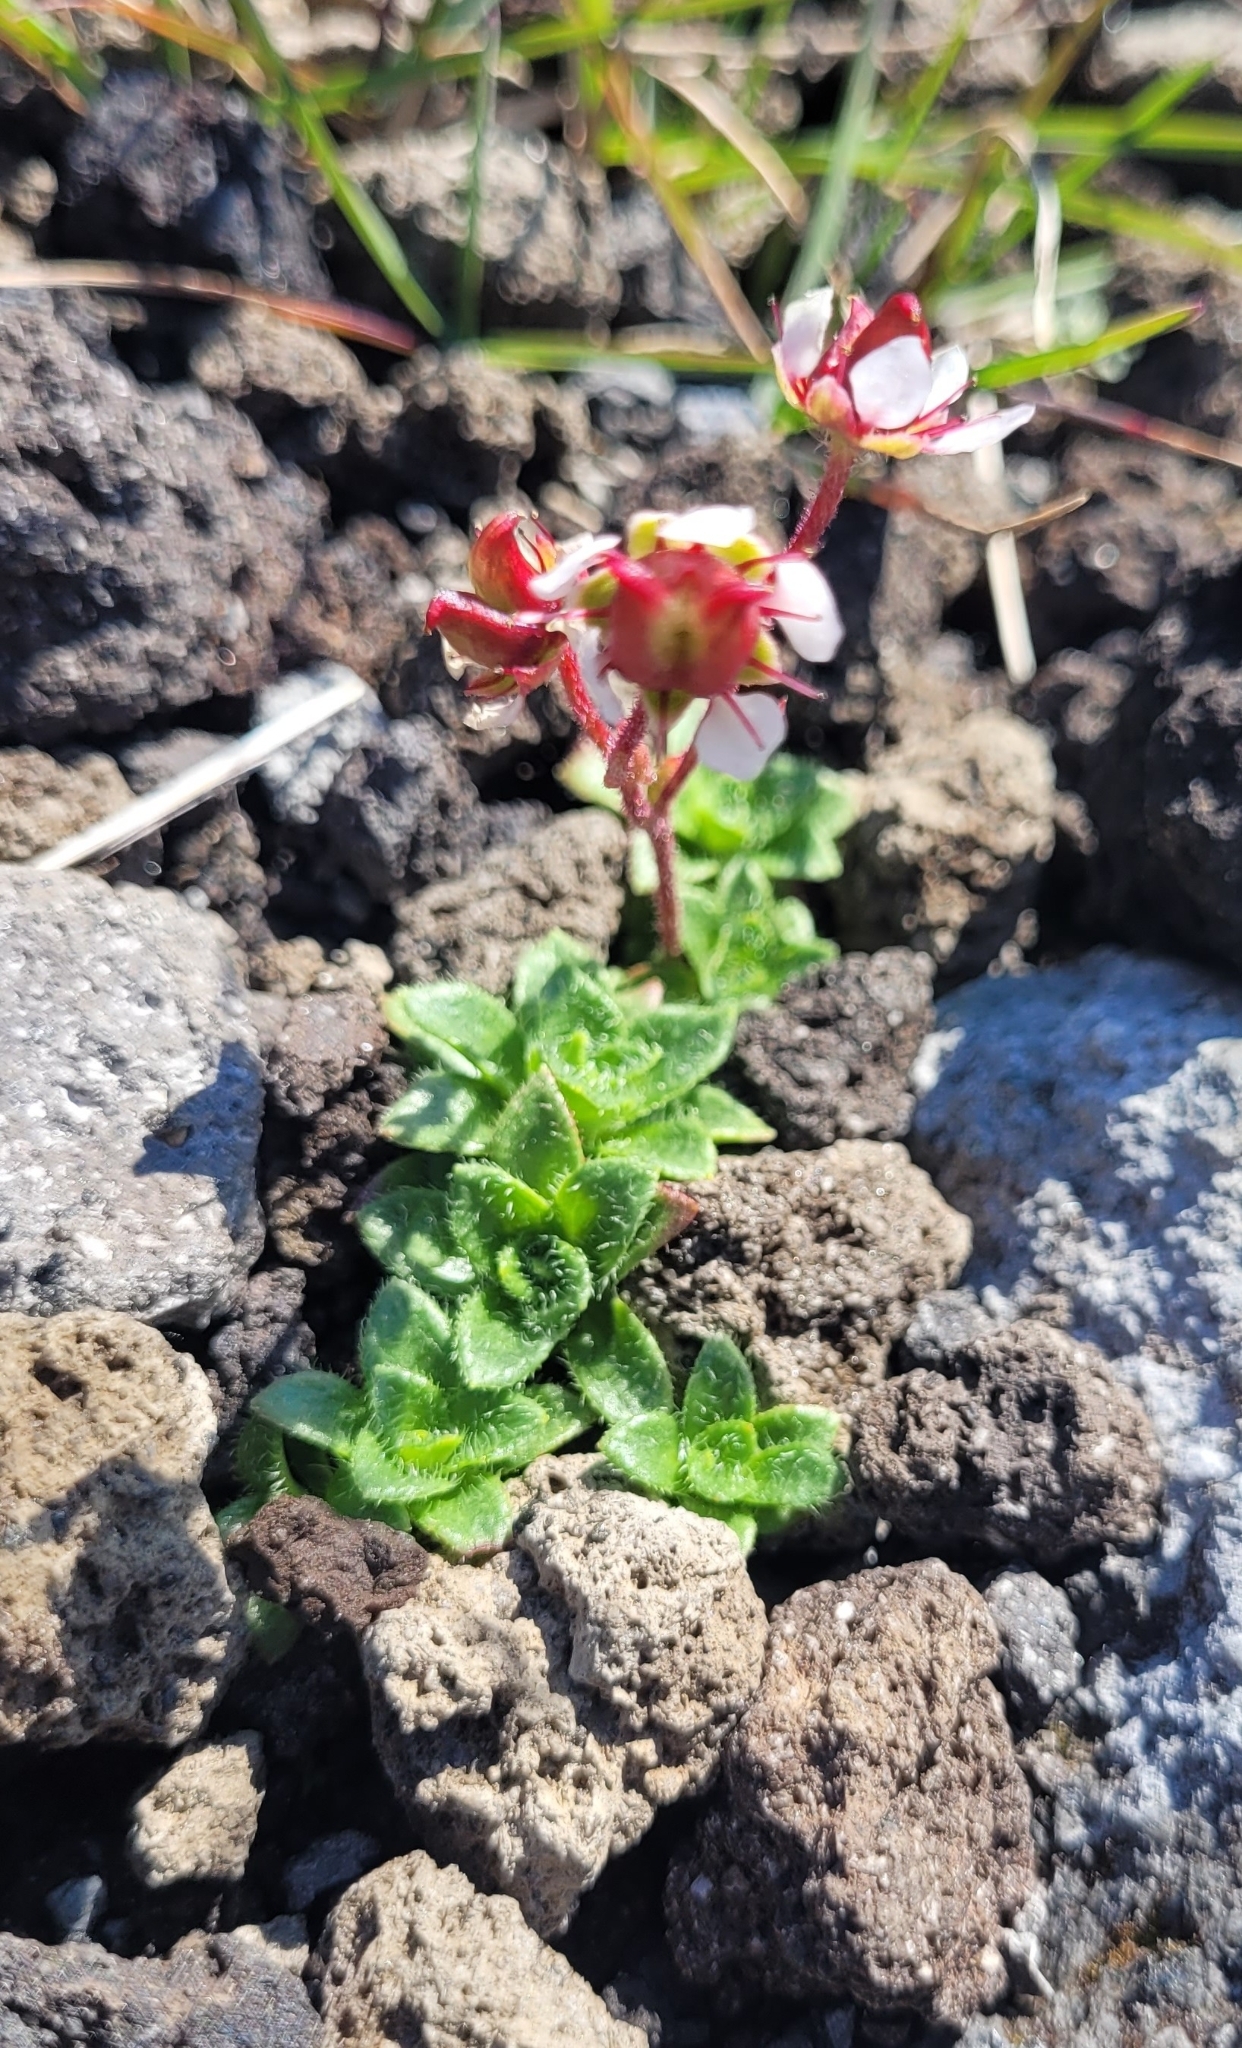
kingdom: Plantae
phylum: Tracheophyta
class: Magnoliopsida
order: Saxifragales
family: Saxifragaceae
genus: Micranthes
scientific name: Micranthes merkii
